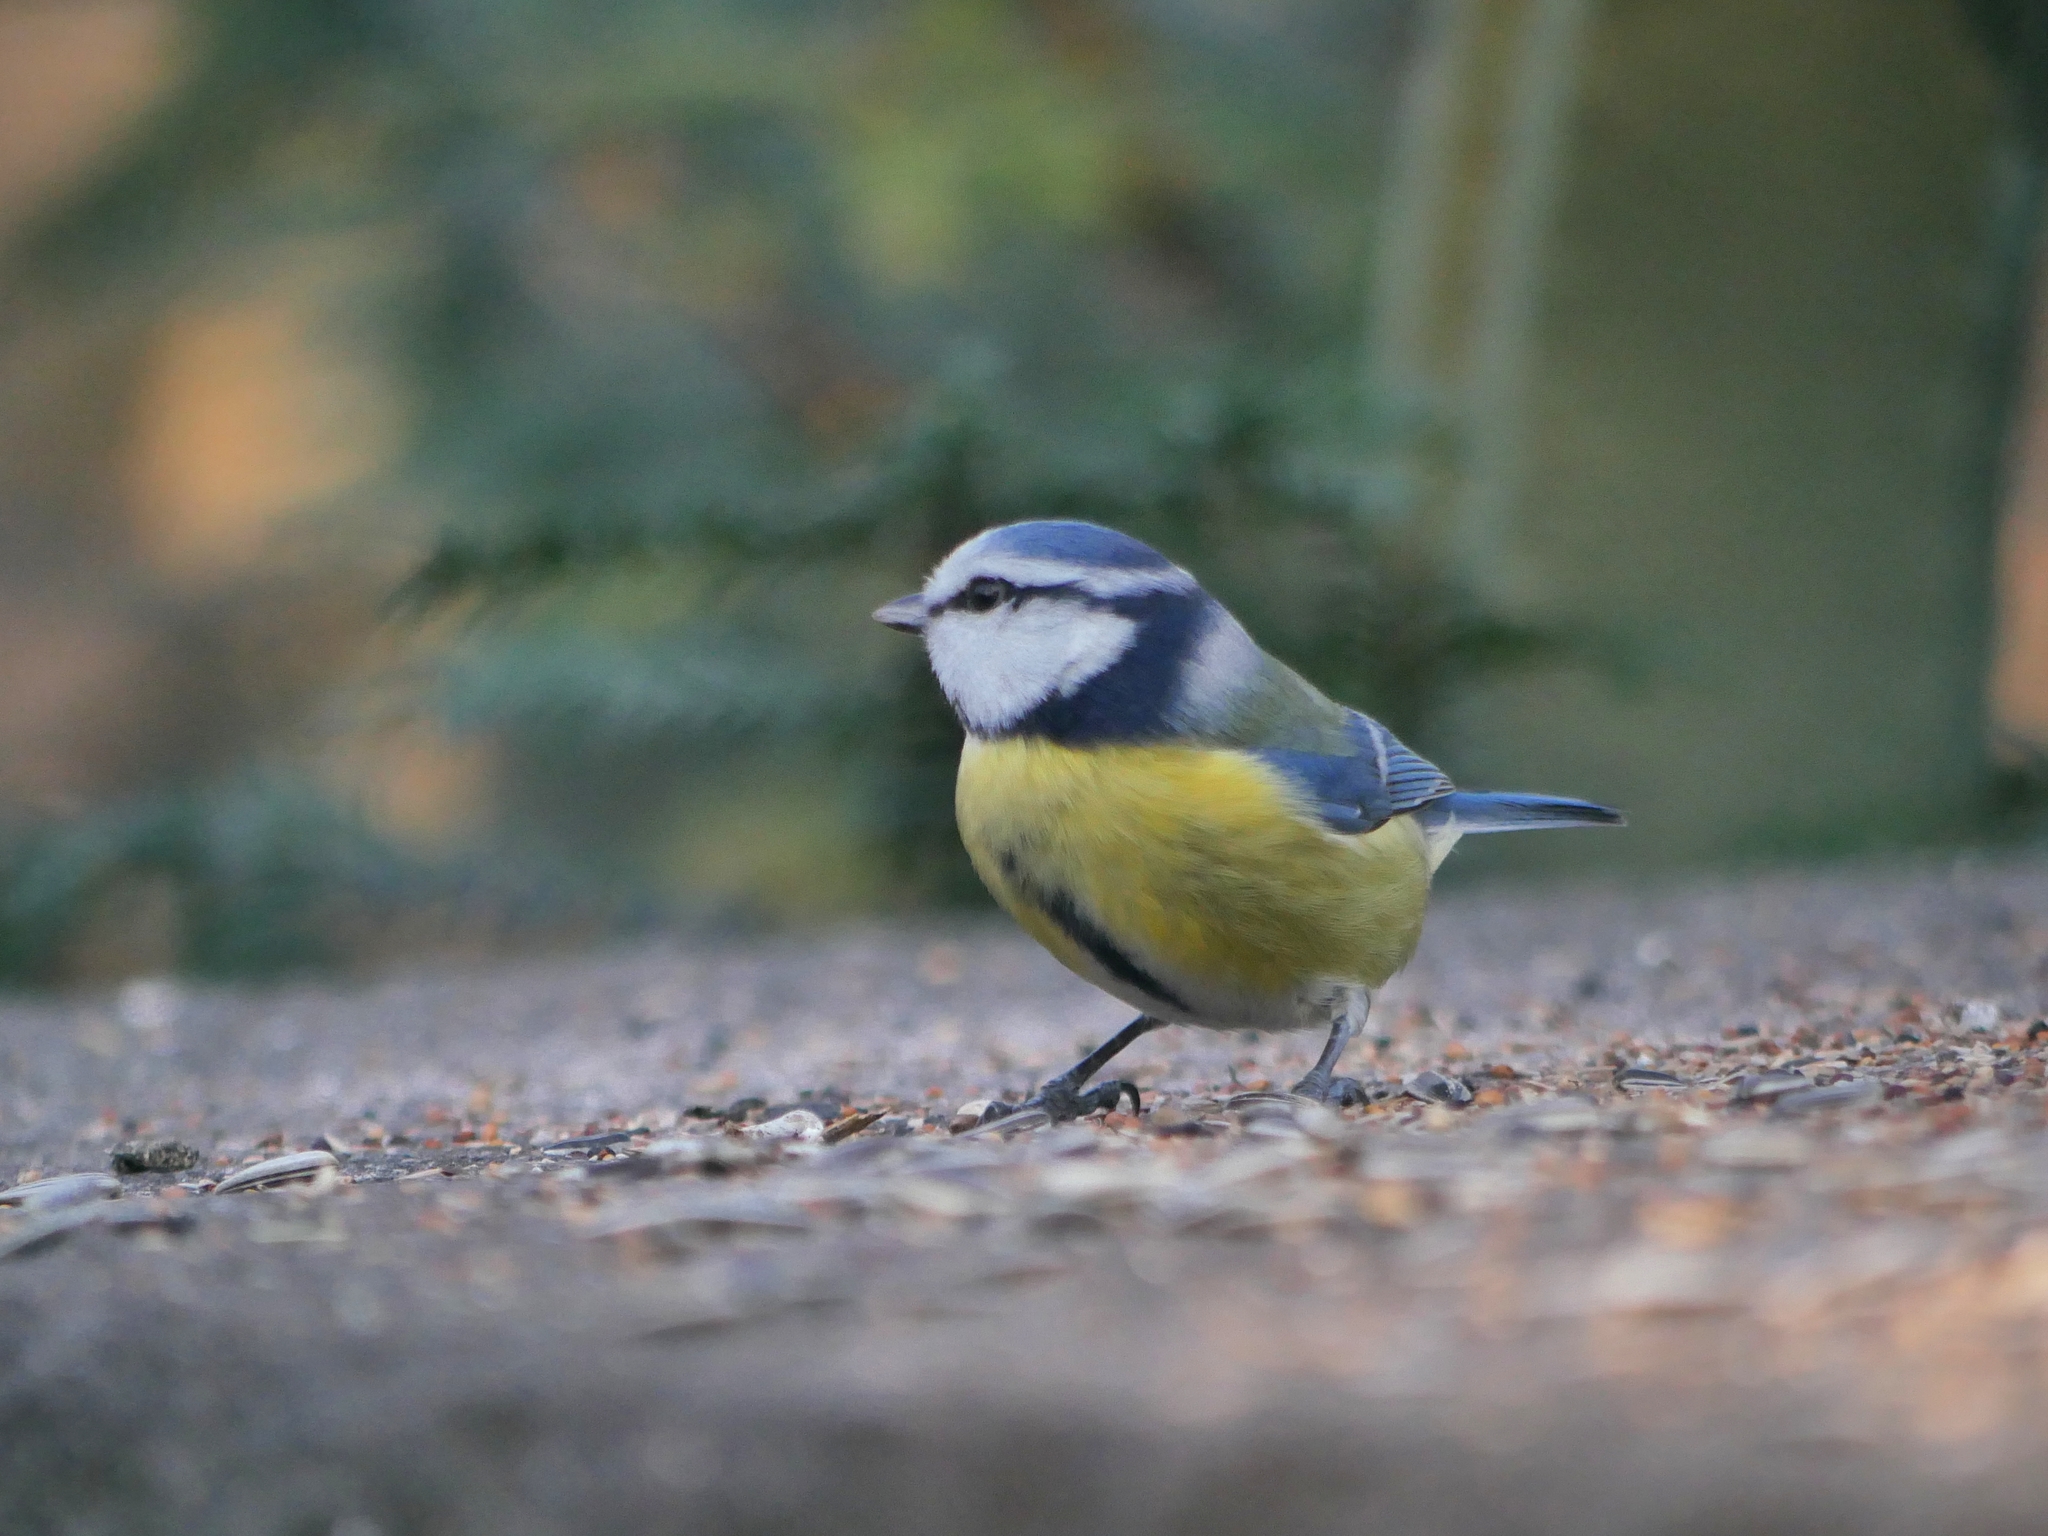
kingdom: Animalia
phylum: Chordata
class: Aves
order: Passeriformes
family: Paridae
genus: Cyanistes
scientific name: Cyanistes caeruleus
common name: Eurasian blue tit
